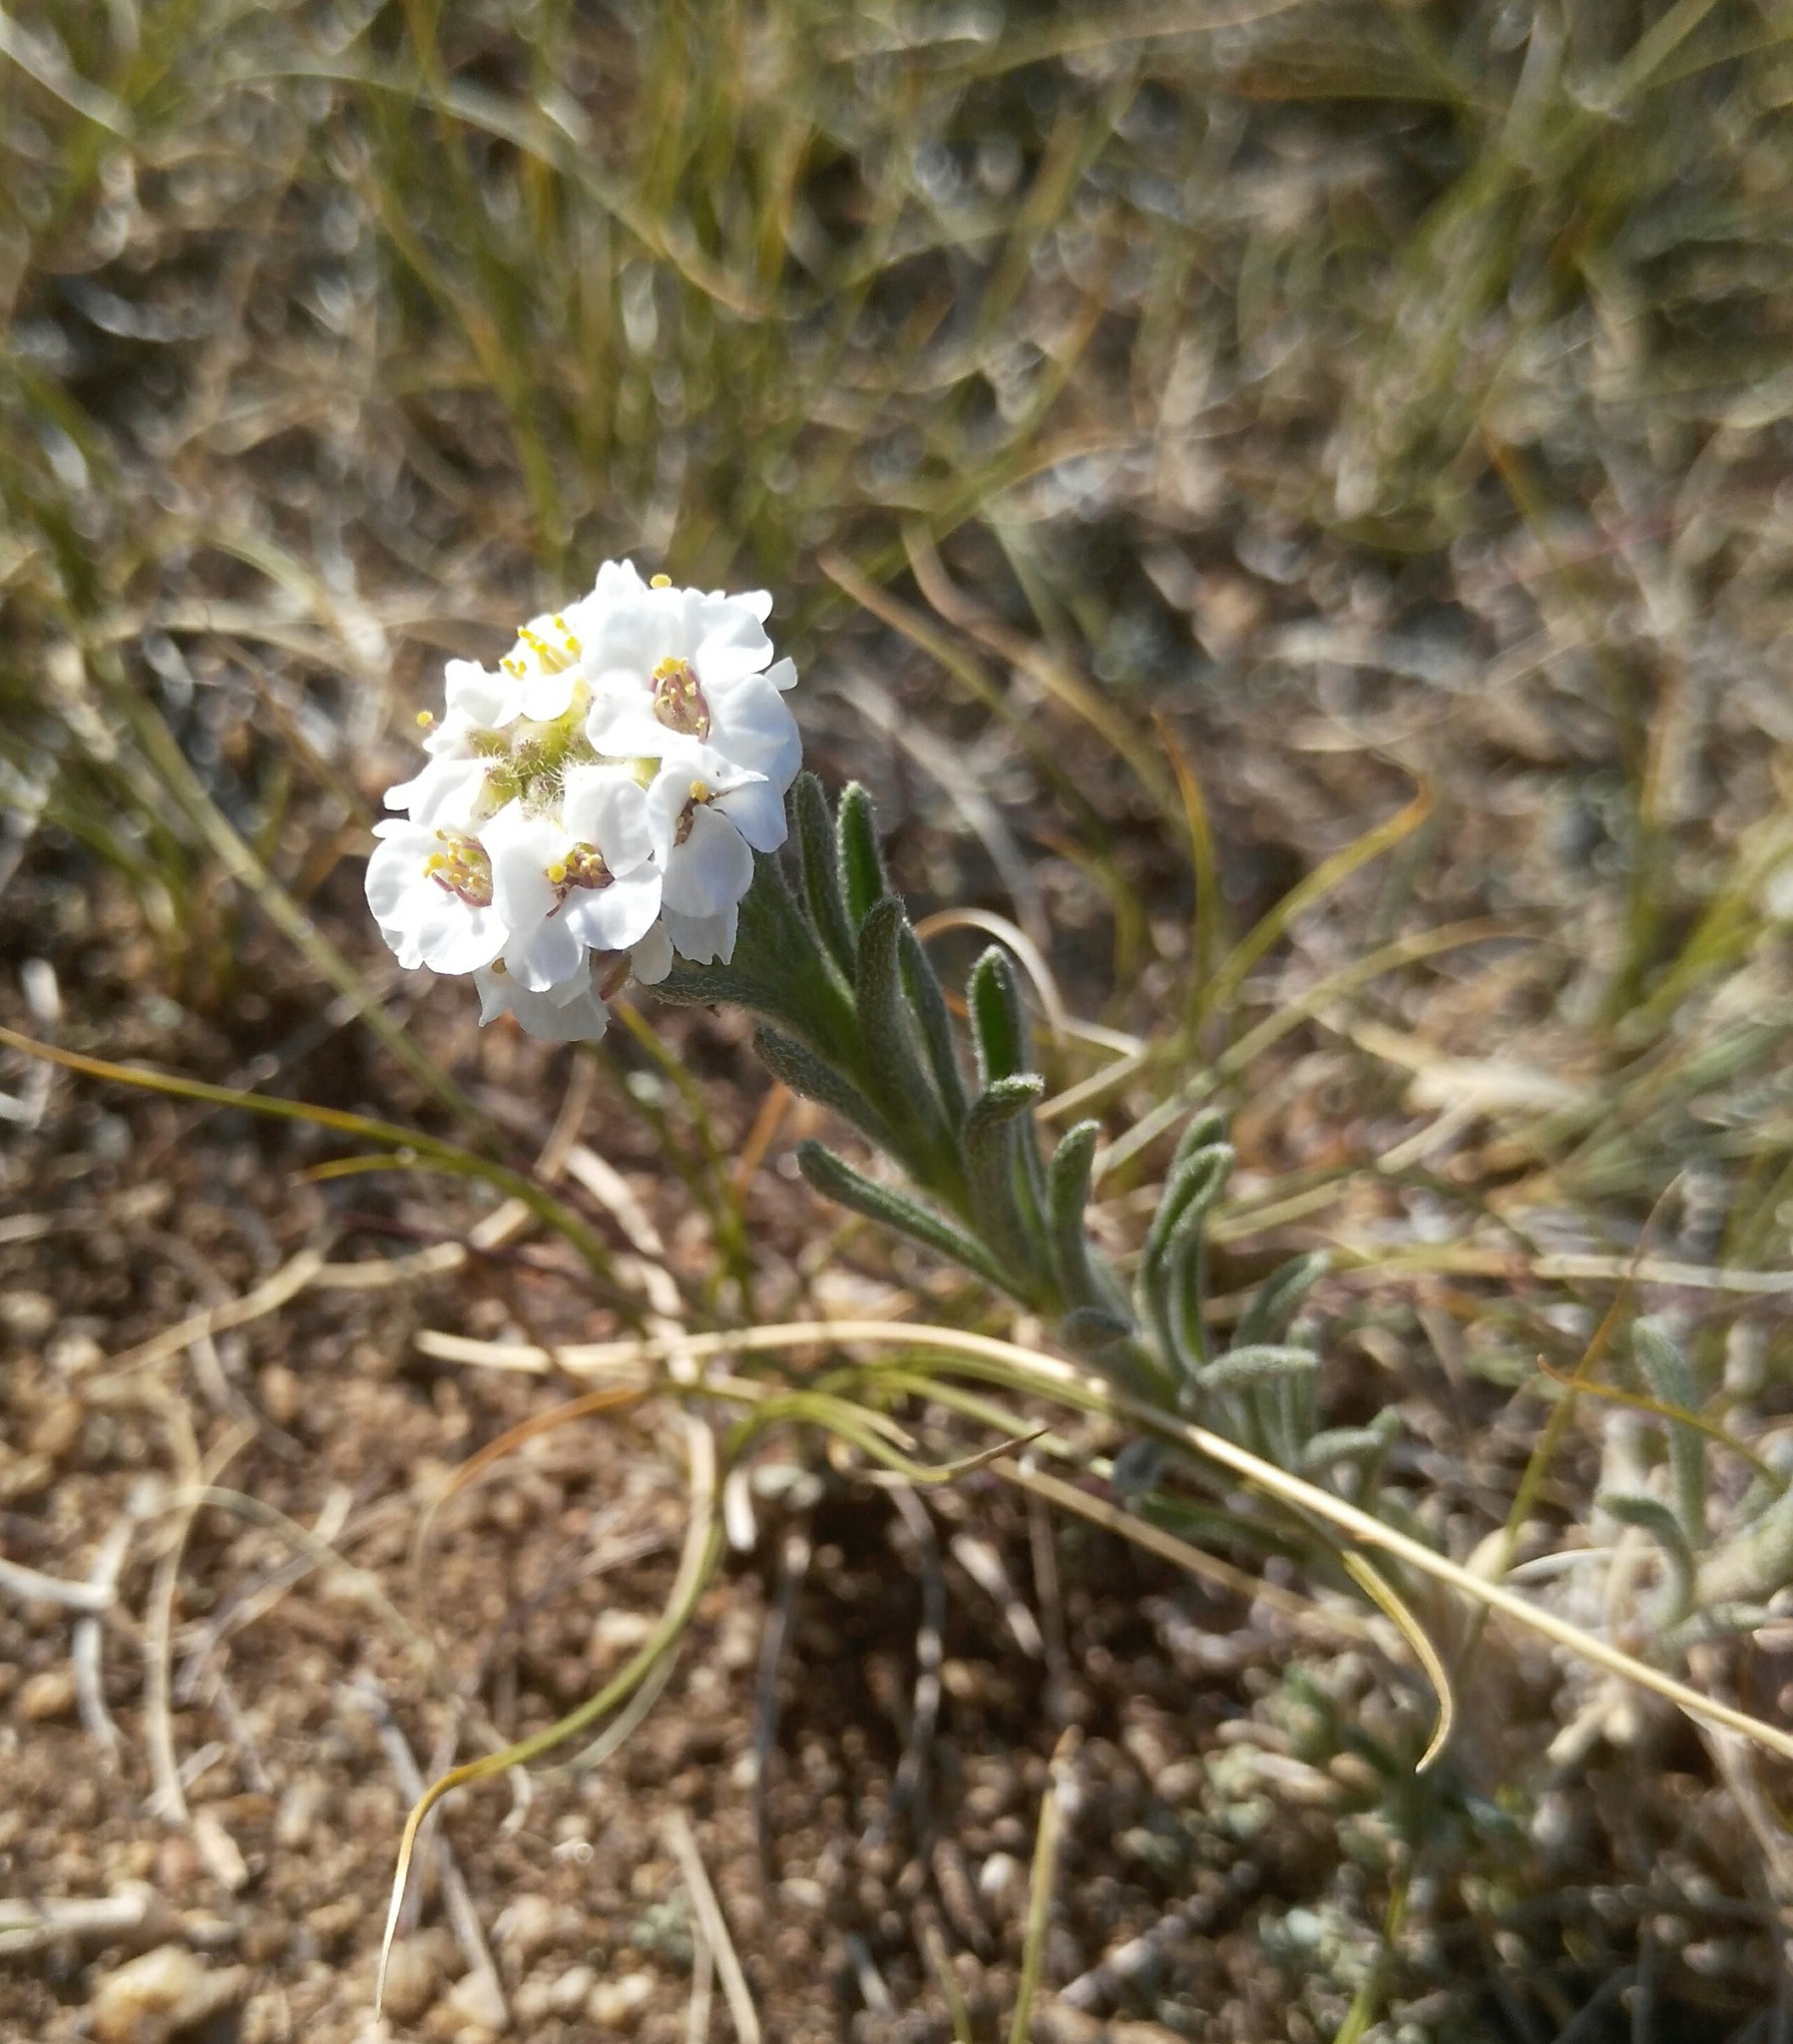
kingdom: Plantae
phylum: Tracheophyta
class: Magnoliopsida
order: Brassicales
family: Brassicaceae
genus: Stevenia
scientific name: Stevenia tenuifolia
